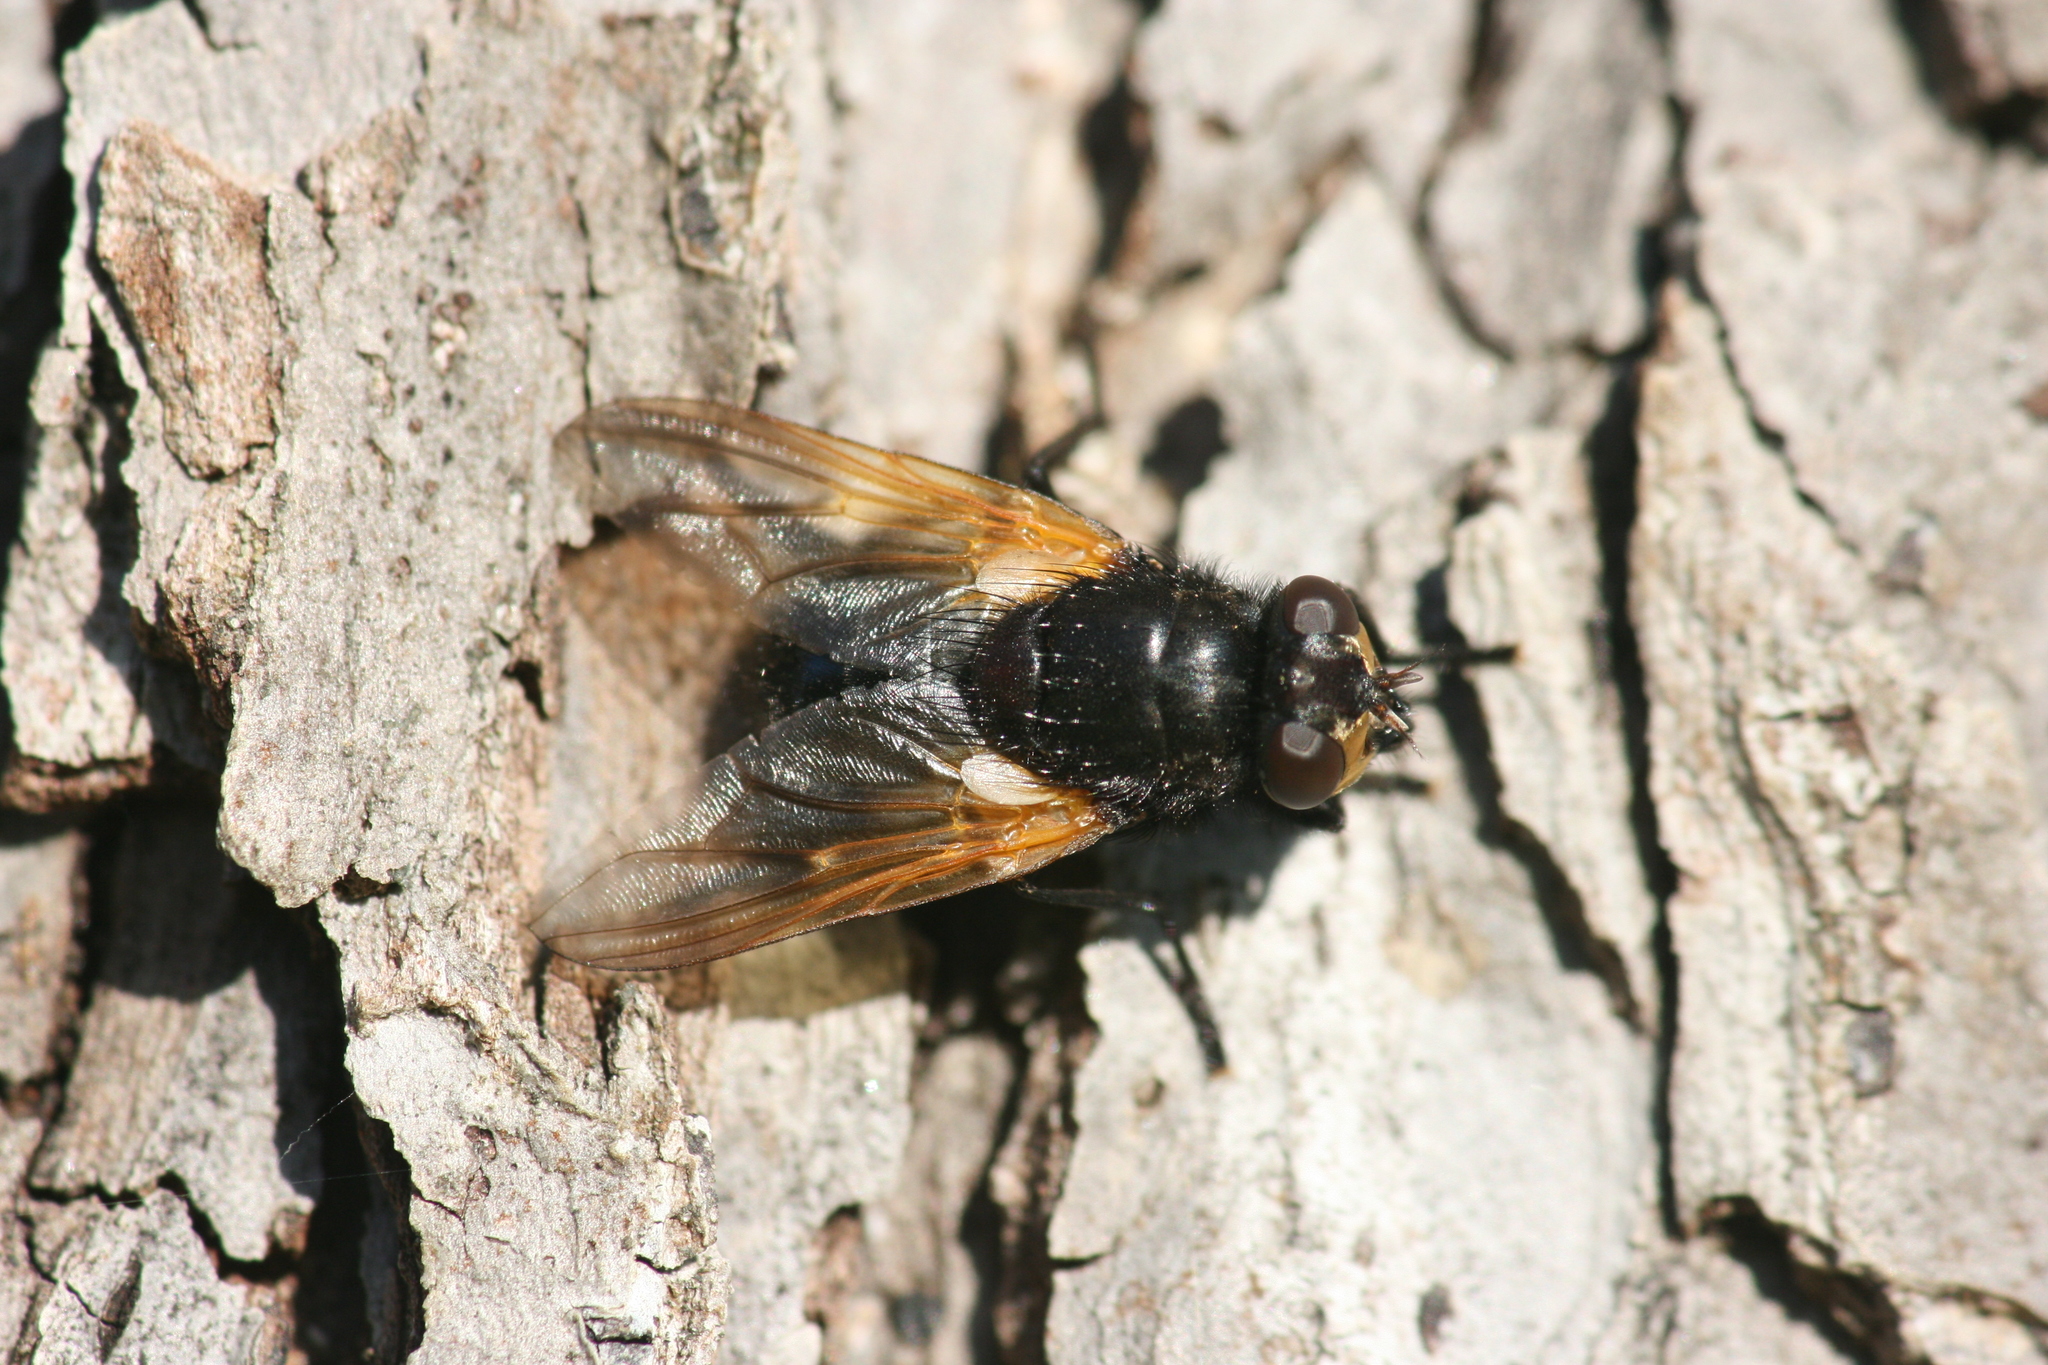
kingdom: Animalia
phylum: Arthropoda
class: Insecta
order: Diptera
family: Muscidae
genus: Mesembrina
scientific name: Mesembrina meridiana
